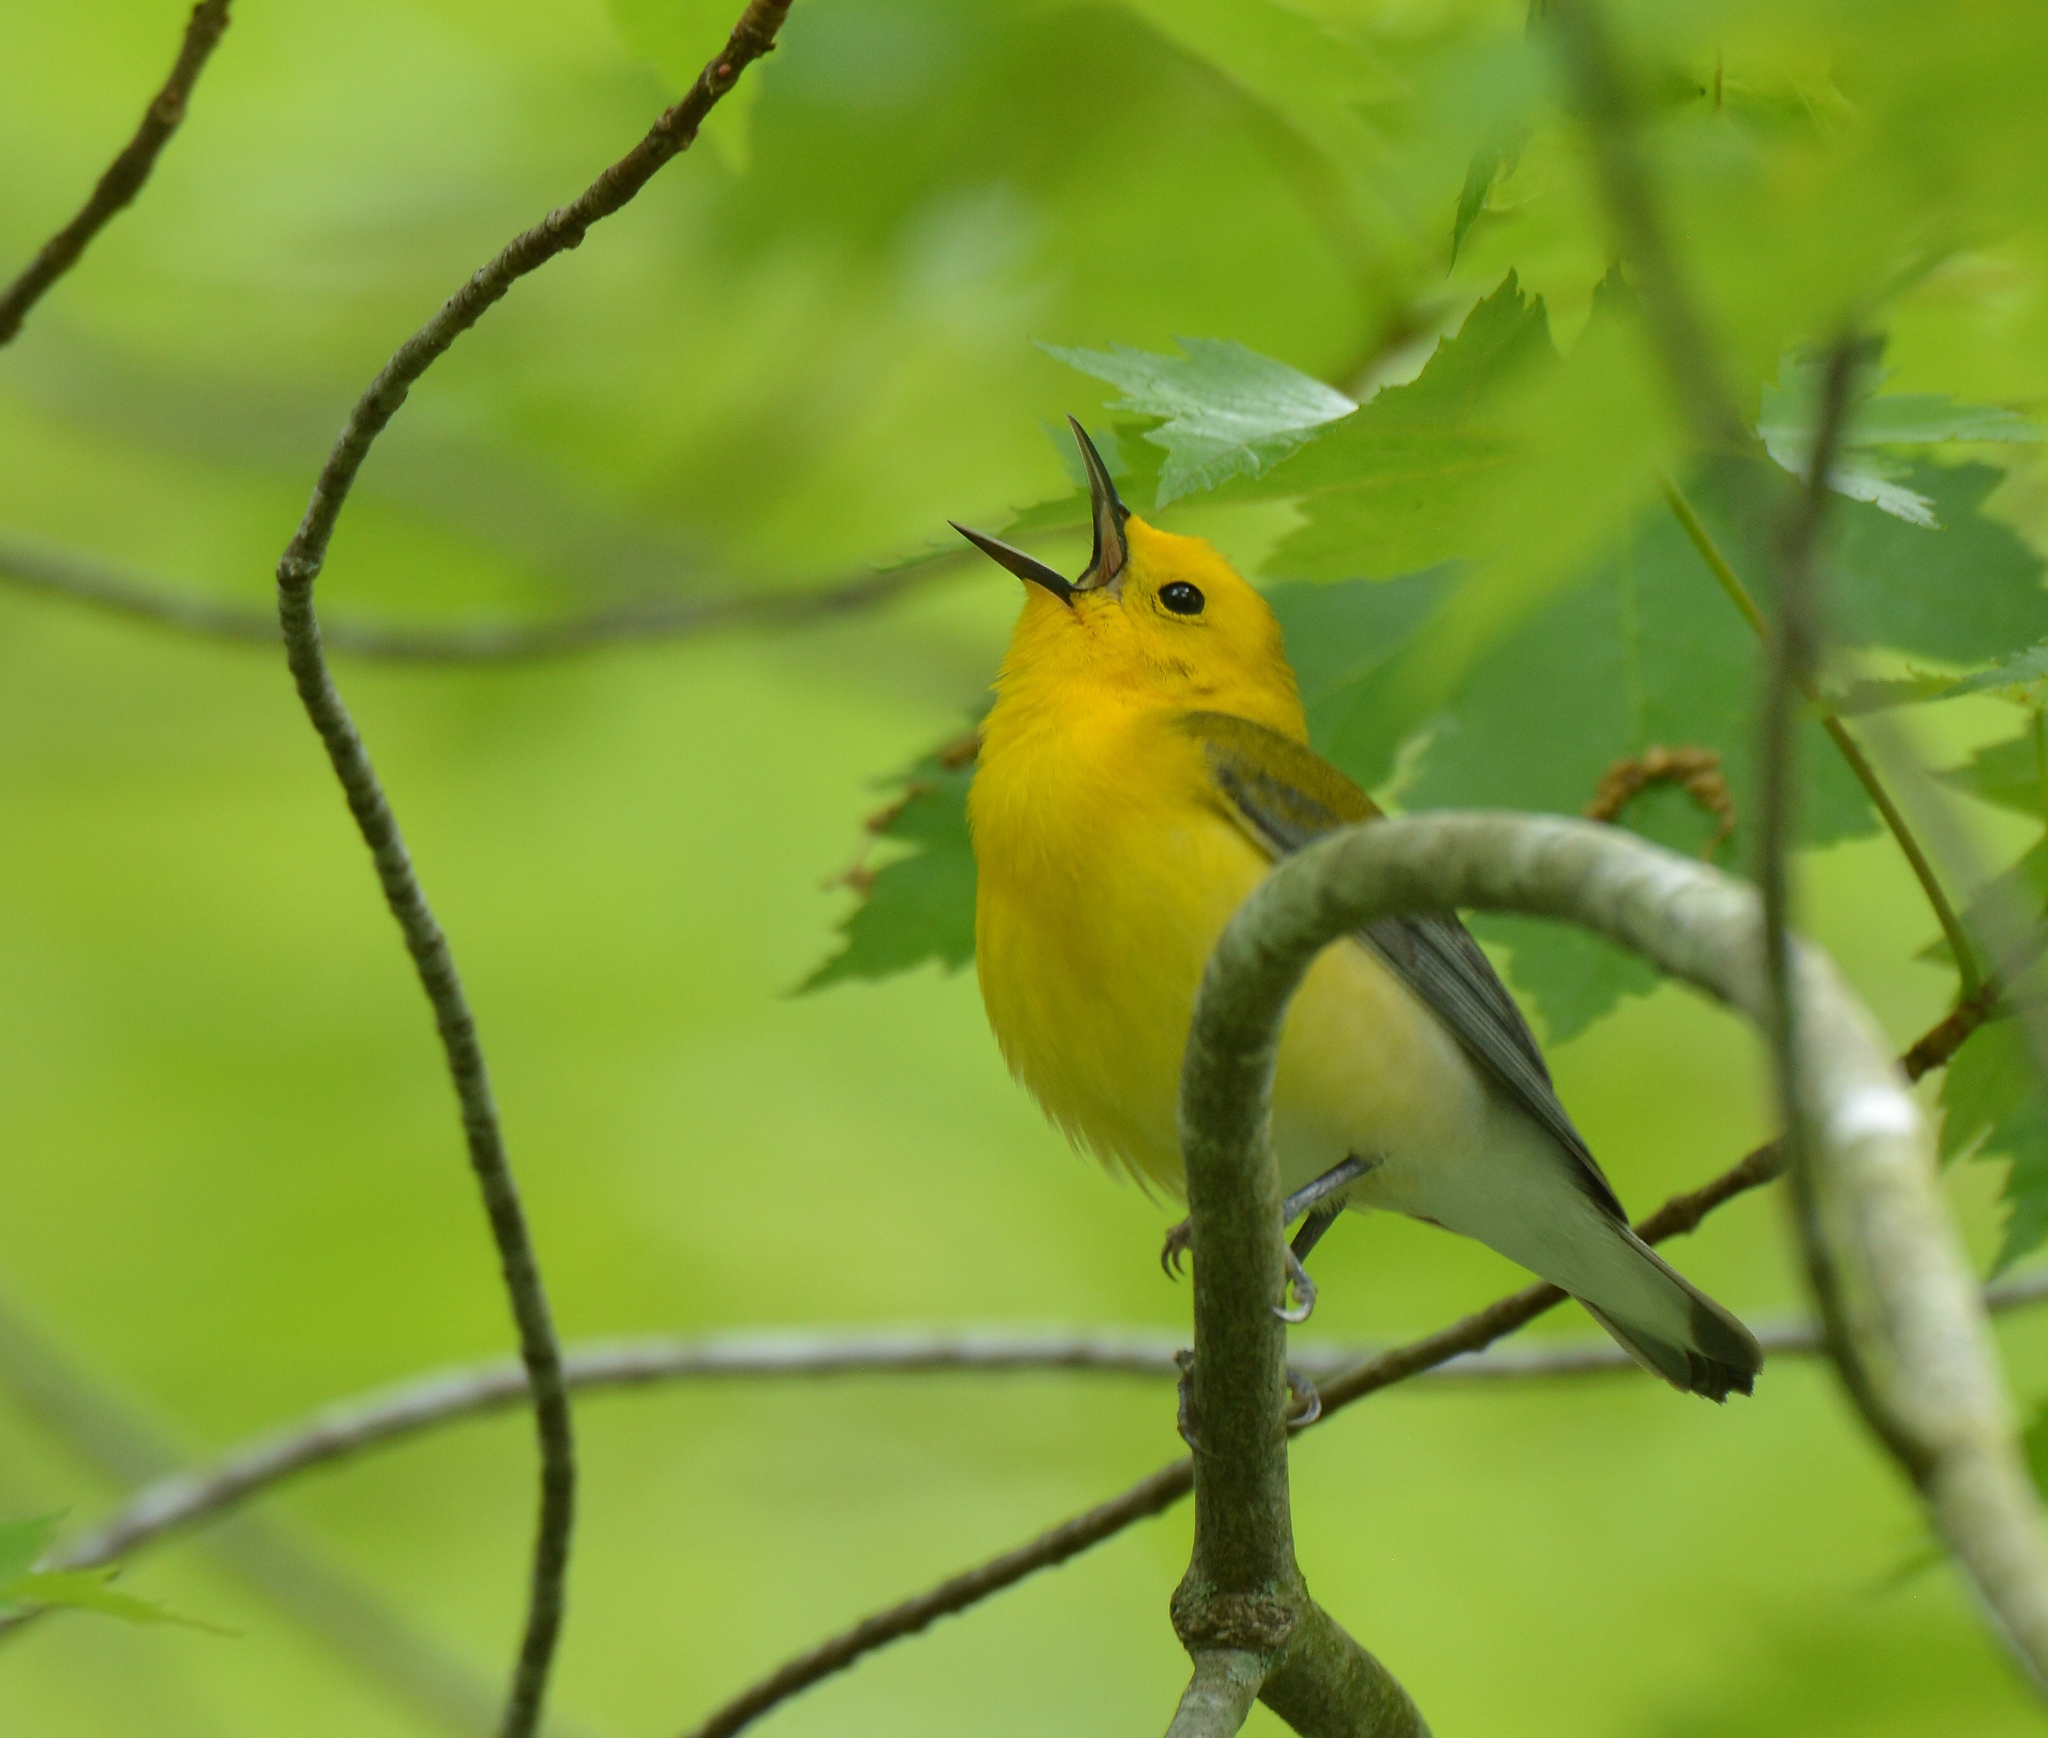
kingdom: Animalia
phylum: Chordata
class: Aves
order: Passeriformes
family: Parulidae
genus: Protonotaria
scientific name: Protonotaria citrea
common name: Prothonotary warbler
